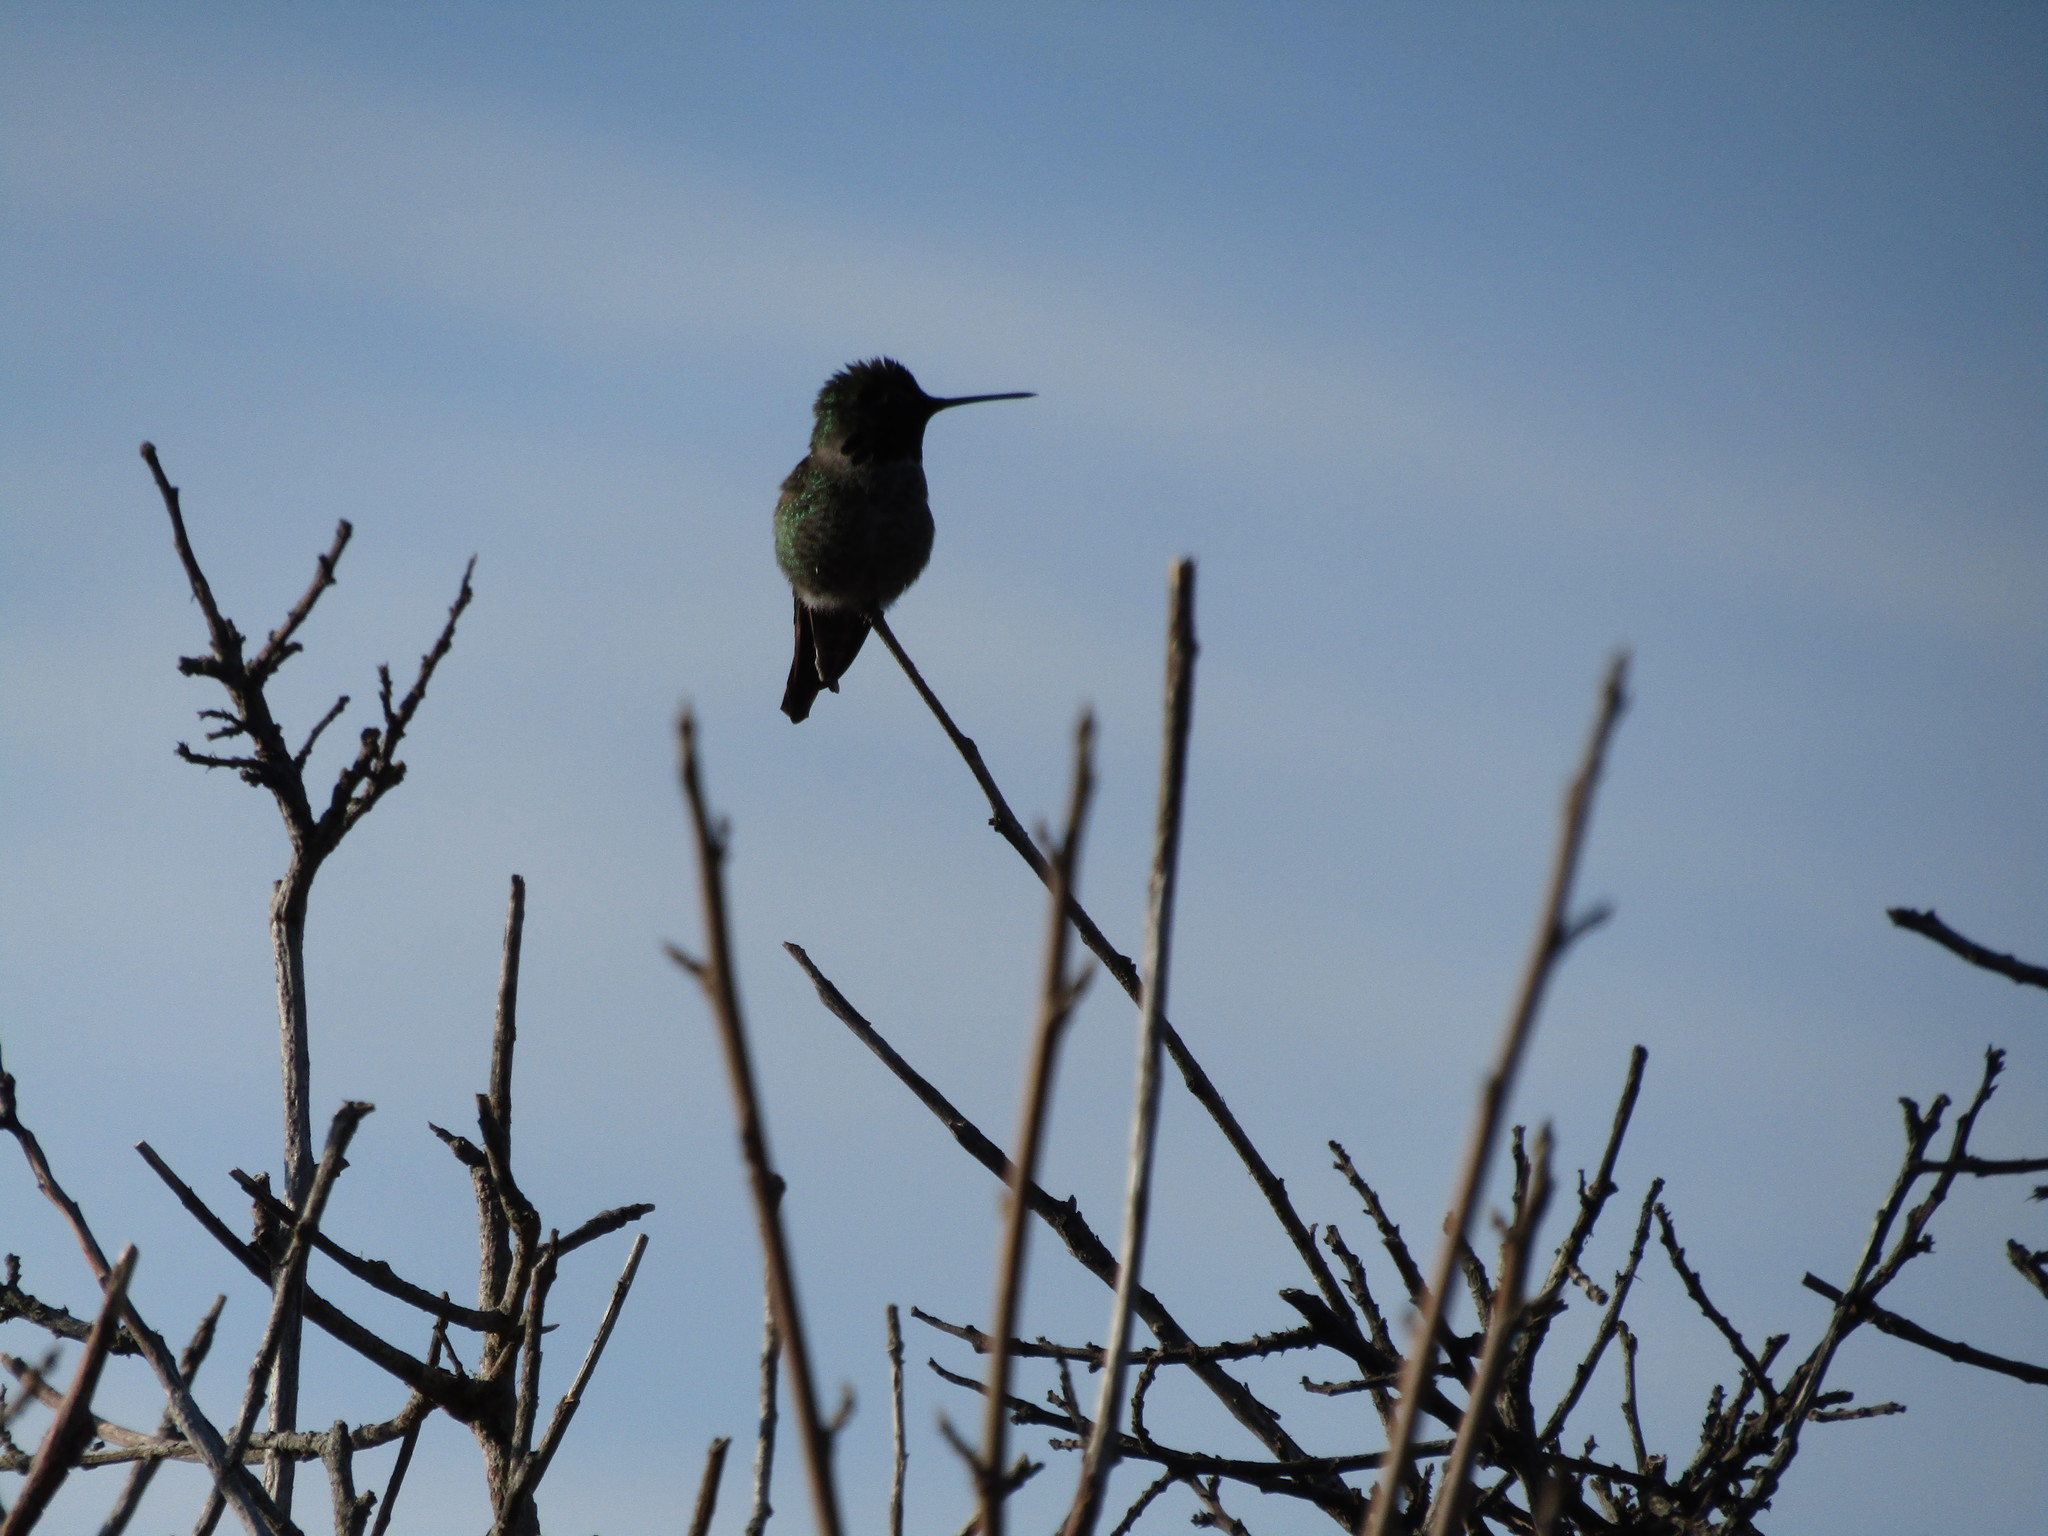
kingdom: Animalia
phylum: Chordata
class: Aves
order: Apodiformes
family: Trochilidae
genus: Calypte
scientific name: Calypte anna
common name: Anna's hummingbird
